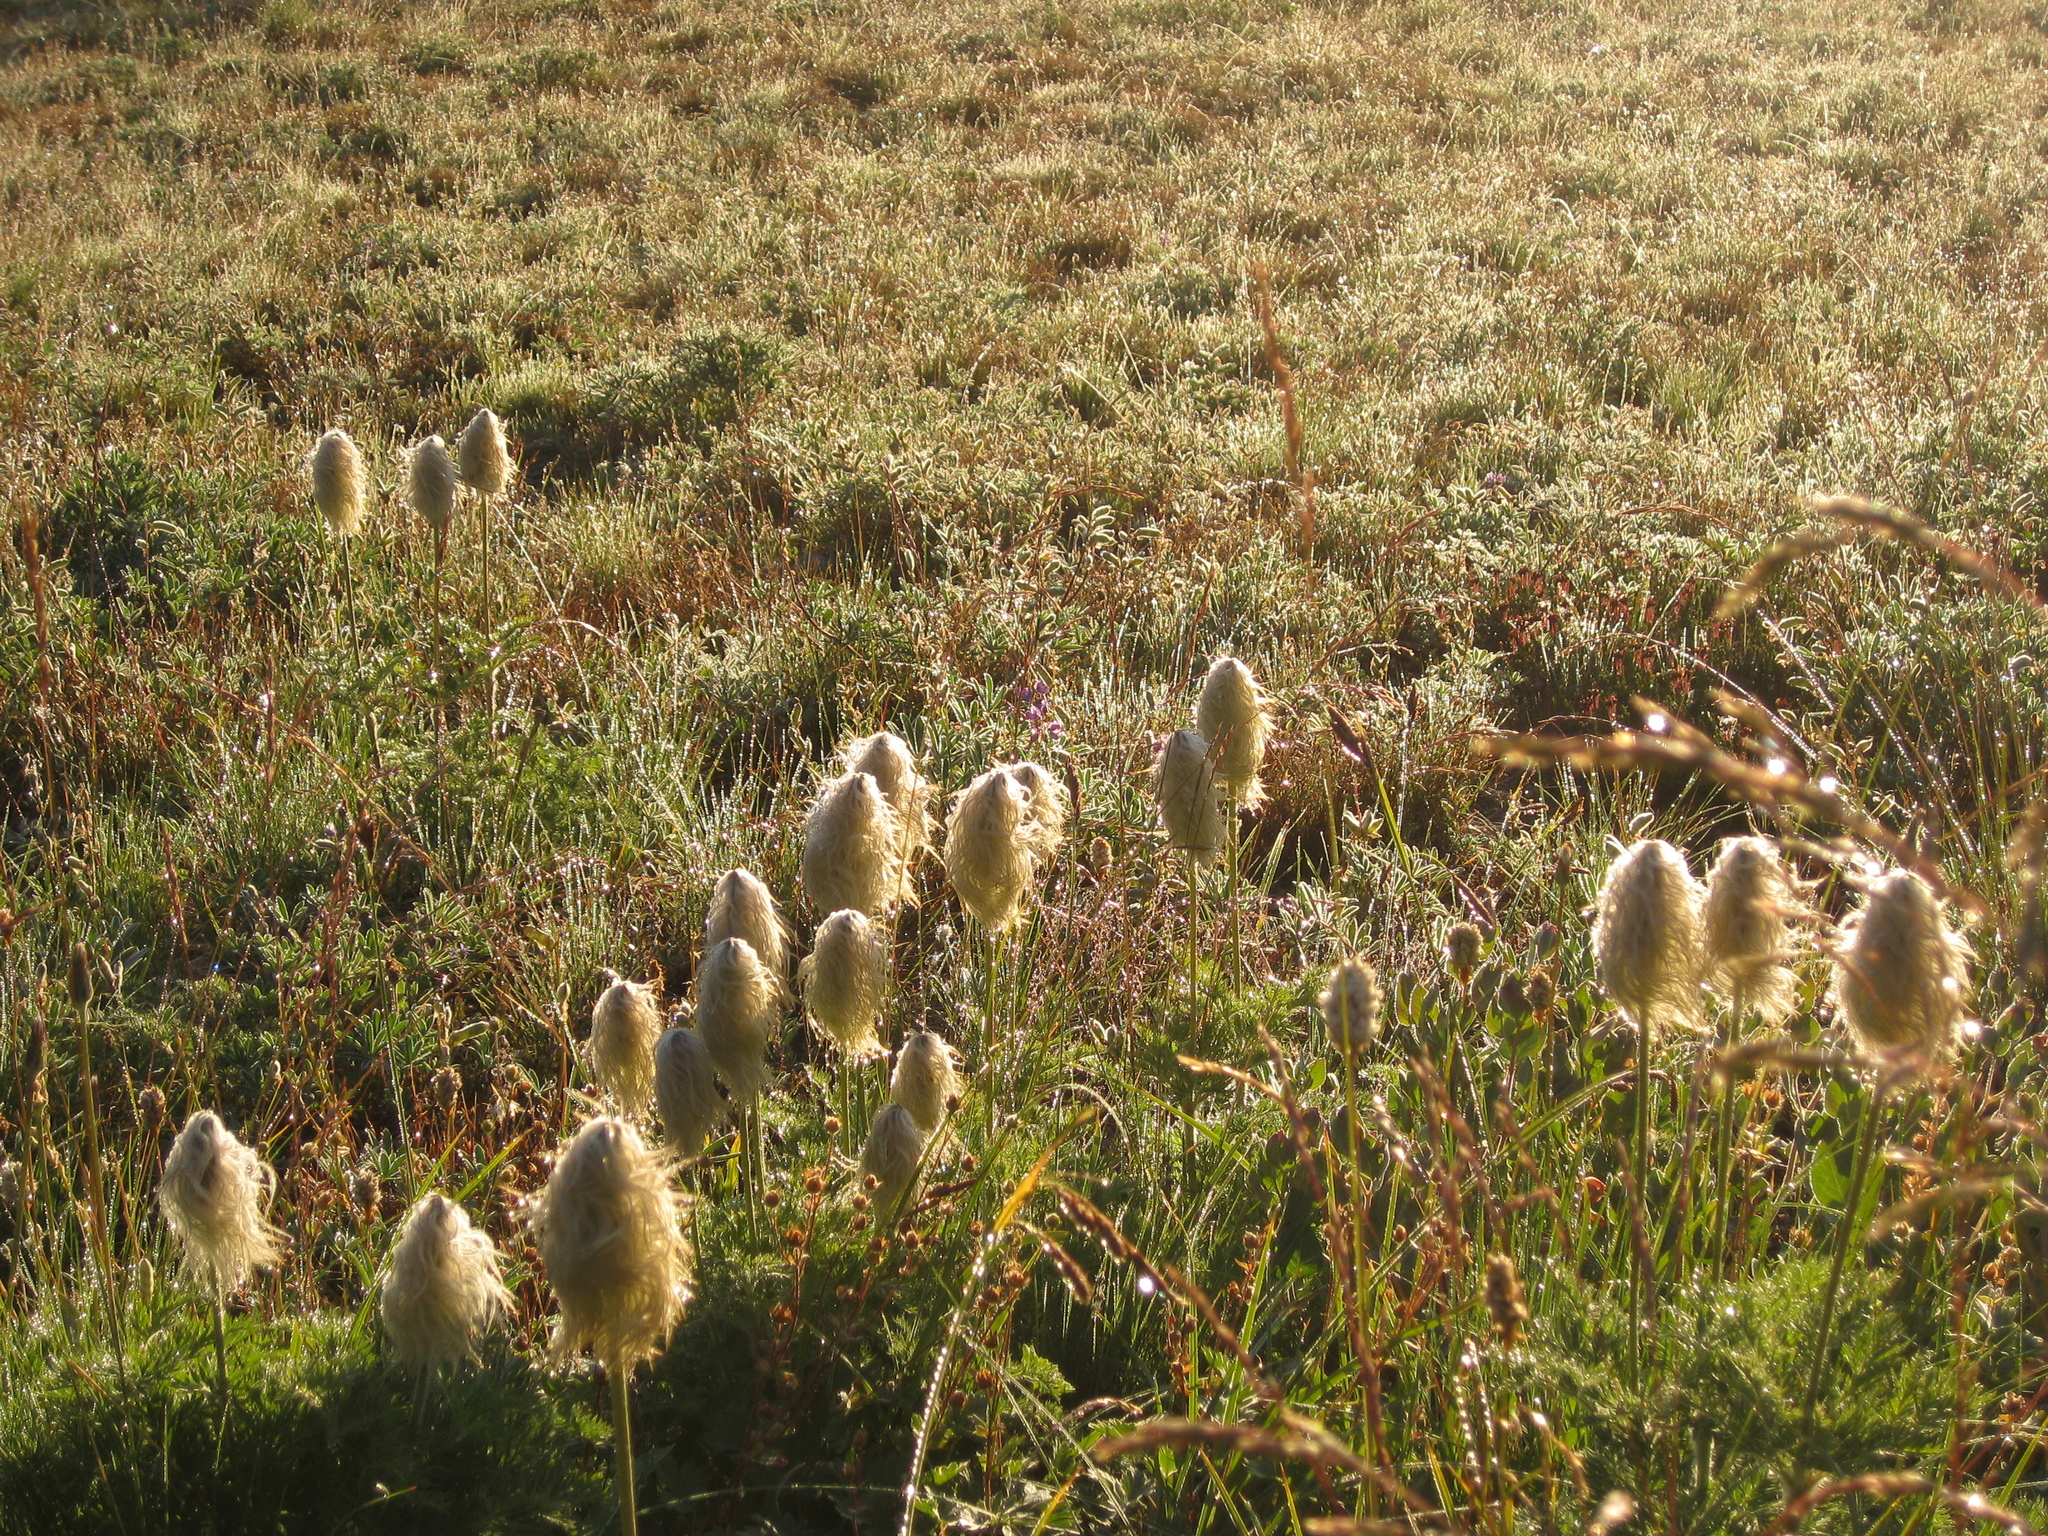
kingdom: Plantae
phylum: Tracheophyta
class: Magnoliopsida
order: Ranunculales
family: Ranunculaceae
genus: Pulsatilla
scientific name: Pulsatilla occidentalis
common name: Mountain pasqueflower
